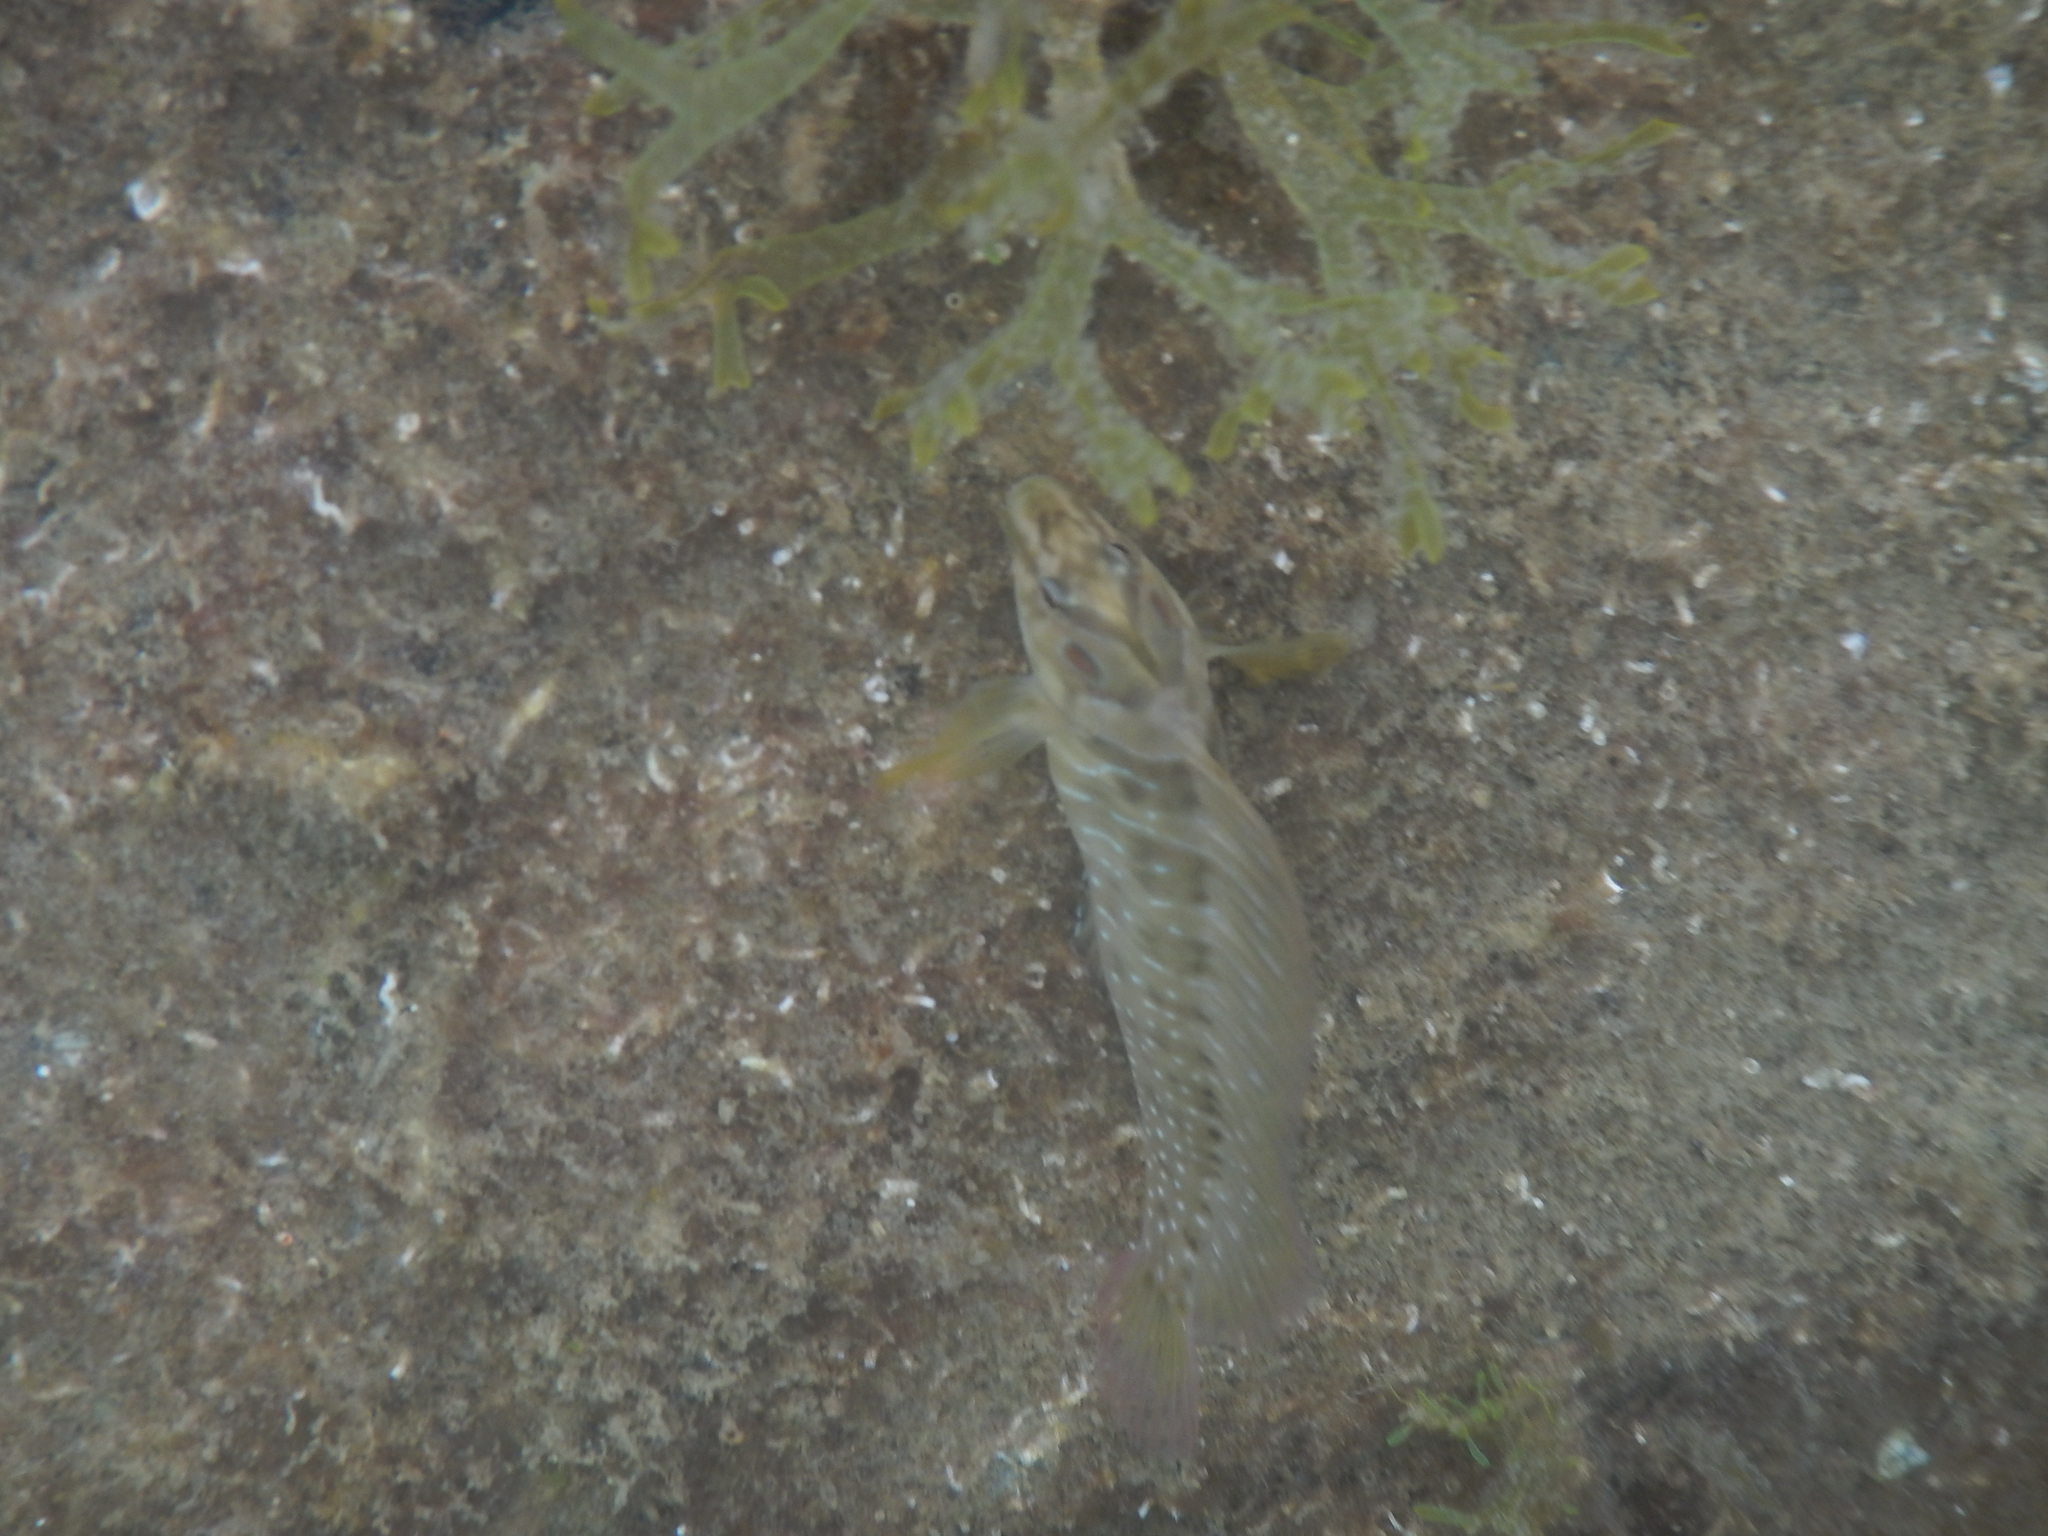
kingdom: Animalia
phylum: Chordata
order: Perciformes
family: Blenniidae
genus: Salaria
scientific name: Salaria pavo
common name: Peacock blenny
